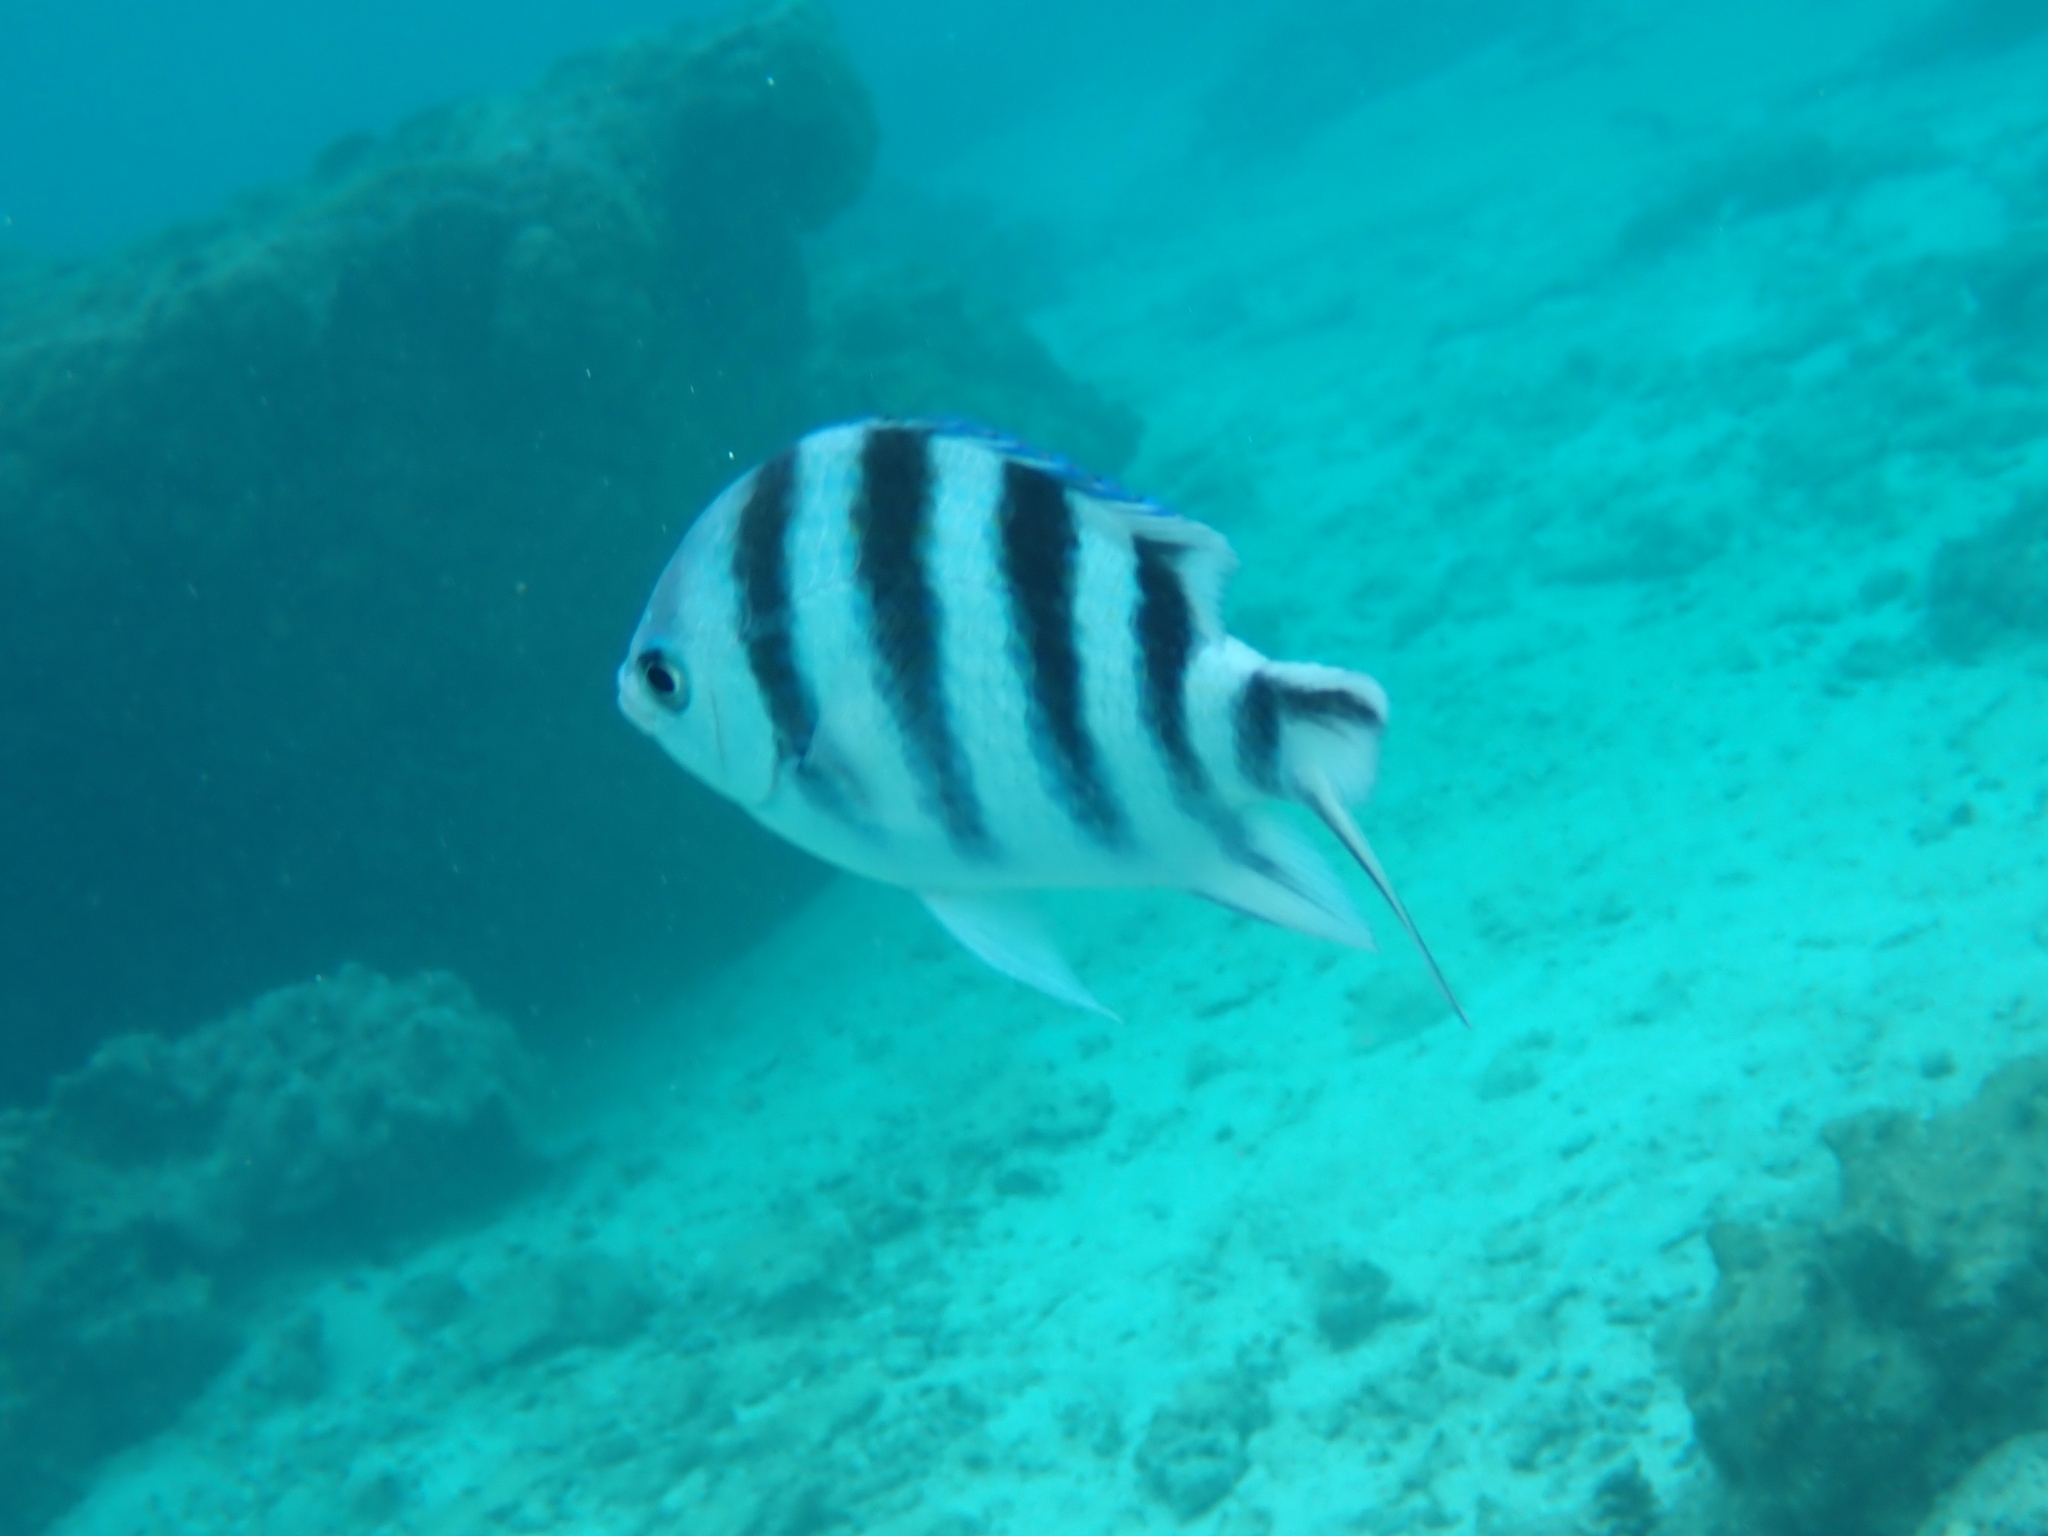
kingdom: Animalia
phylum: Chordata
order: Perciformes
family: Pomacentridae
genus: Abudefduf
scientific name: Abudefduf sexfasciatus
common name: Scissortail sergeant
